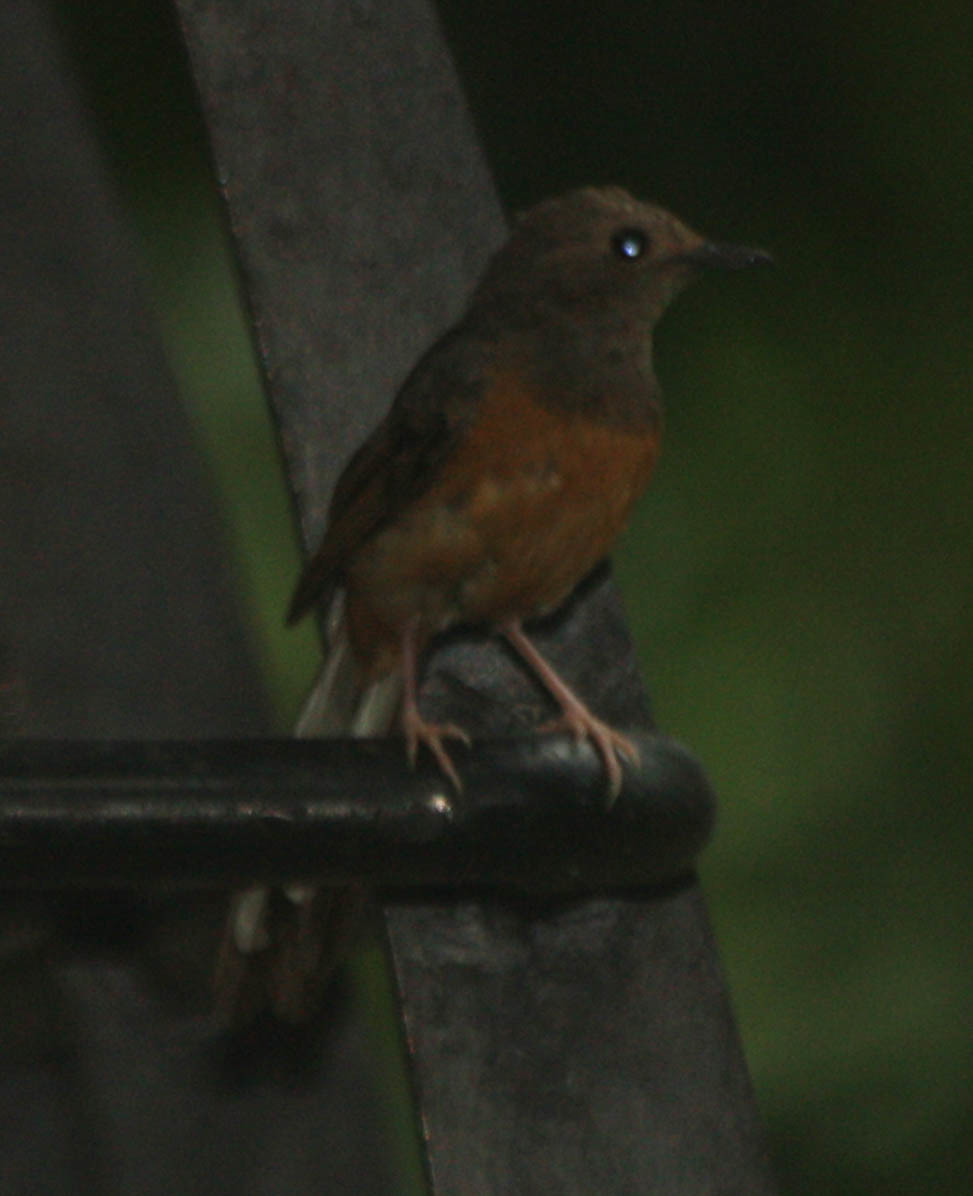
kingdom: Animalia
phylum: Chordata
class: Aves
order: Passeriformes
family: Muscicapidae
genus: Copsychus
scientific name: Copsychus malabaricus
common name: White-rumped shama
